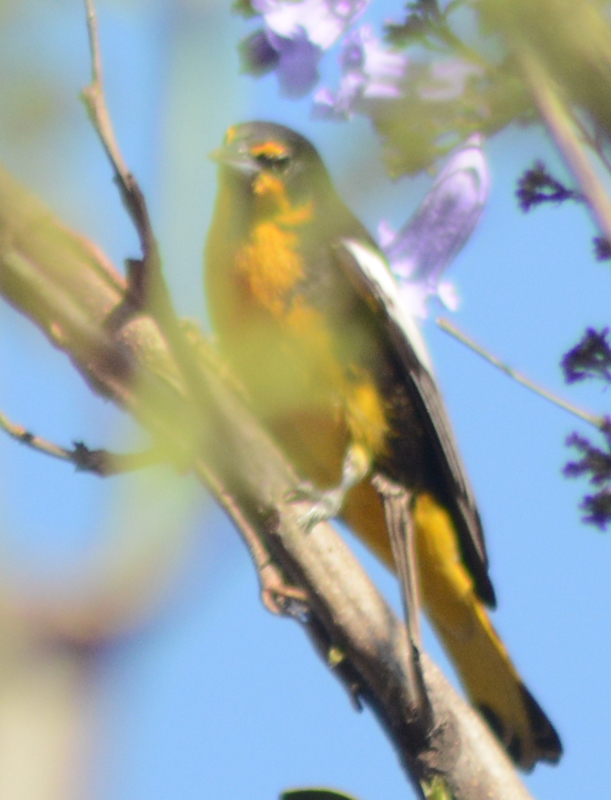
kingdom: Animalia
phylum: Chordata
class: Aves
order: Passeriformes
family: Icteridae
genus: Icterus
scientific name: Icterus abeillei
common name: Black-backed oriole
